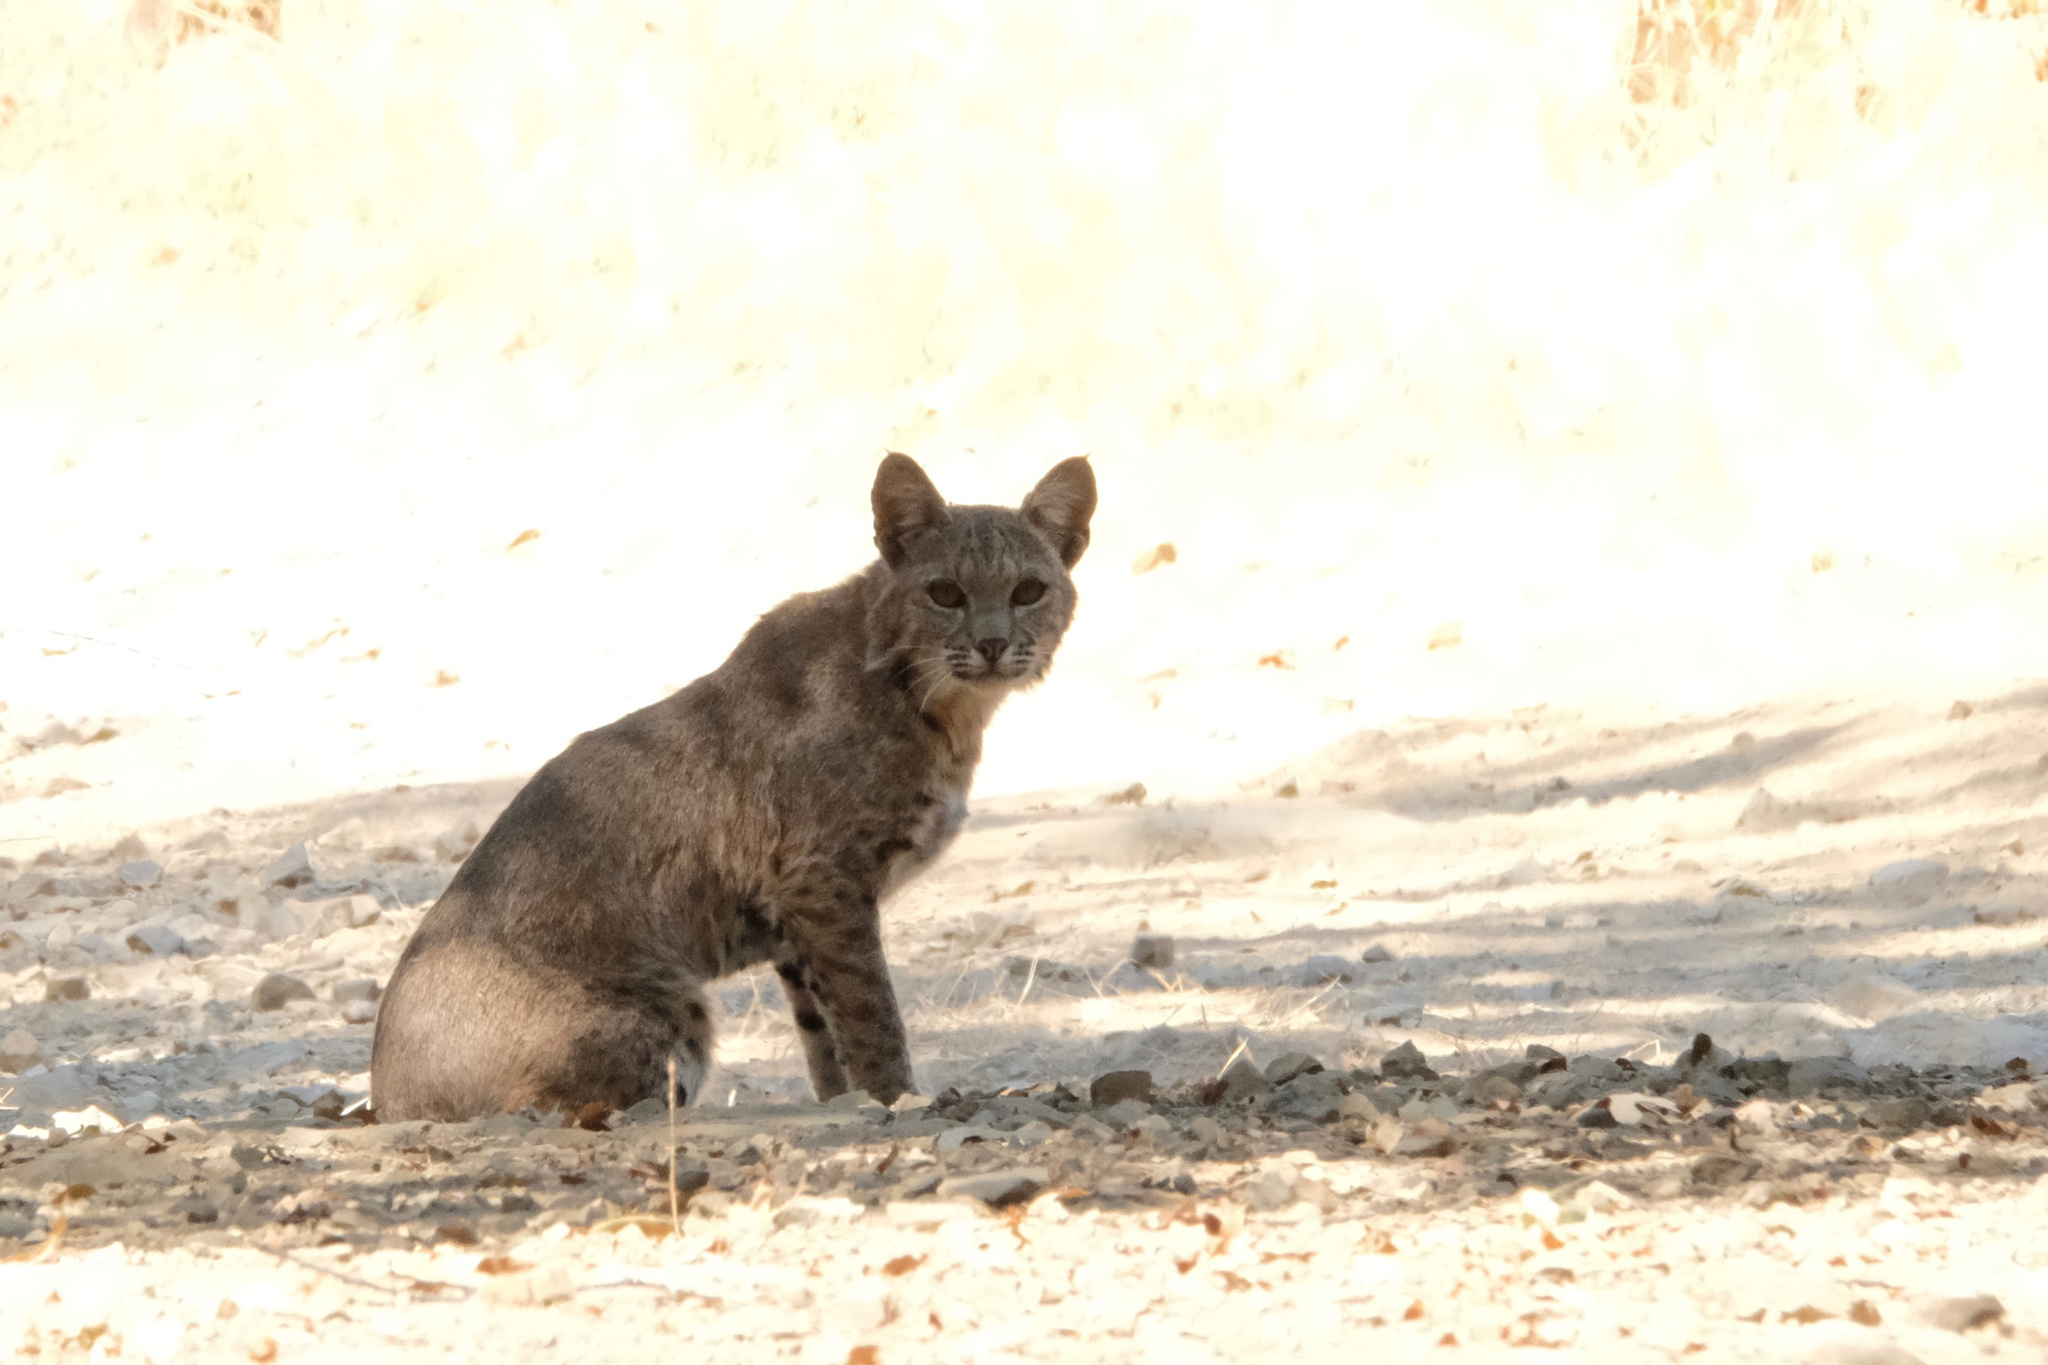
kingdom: Animalia
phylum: Chordata
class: Mammalia
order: Carnivora
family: Felidae
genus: Lynx
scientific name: Lynx rufus
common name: Bobcat
